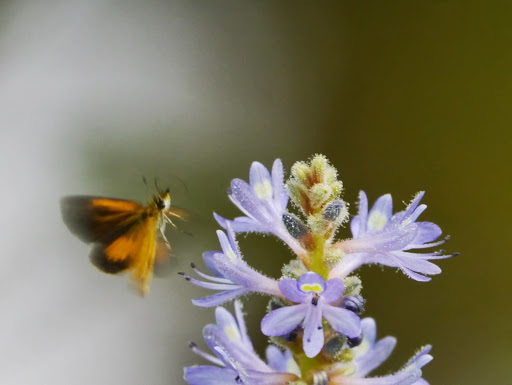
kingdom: Animalia
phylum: Arthropoda
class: Insecta
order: Lepidoptera
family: Hesperiidae
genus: Ancyloxypha
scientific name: Ancyloxypha numitor
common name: Least skipper
